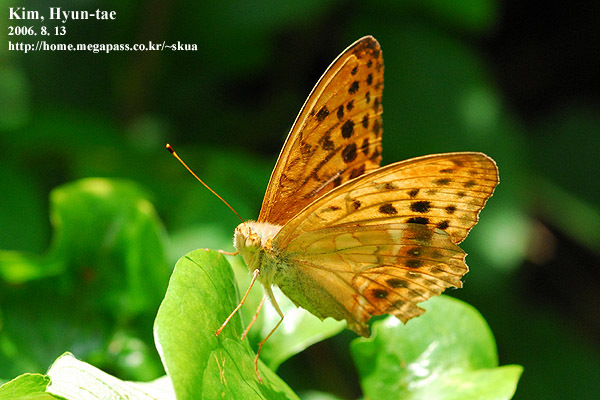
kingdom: Animalia
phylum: Arthropoda
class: Insecta
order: Lepidoptera
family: Nymphalidae
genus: Damora
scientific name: Damora sagana
